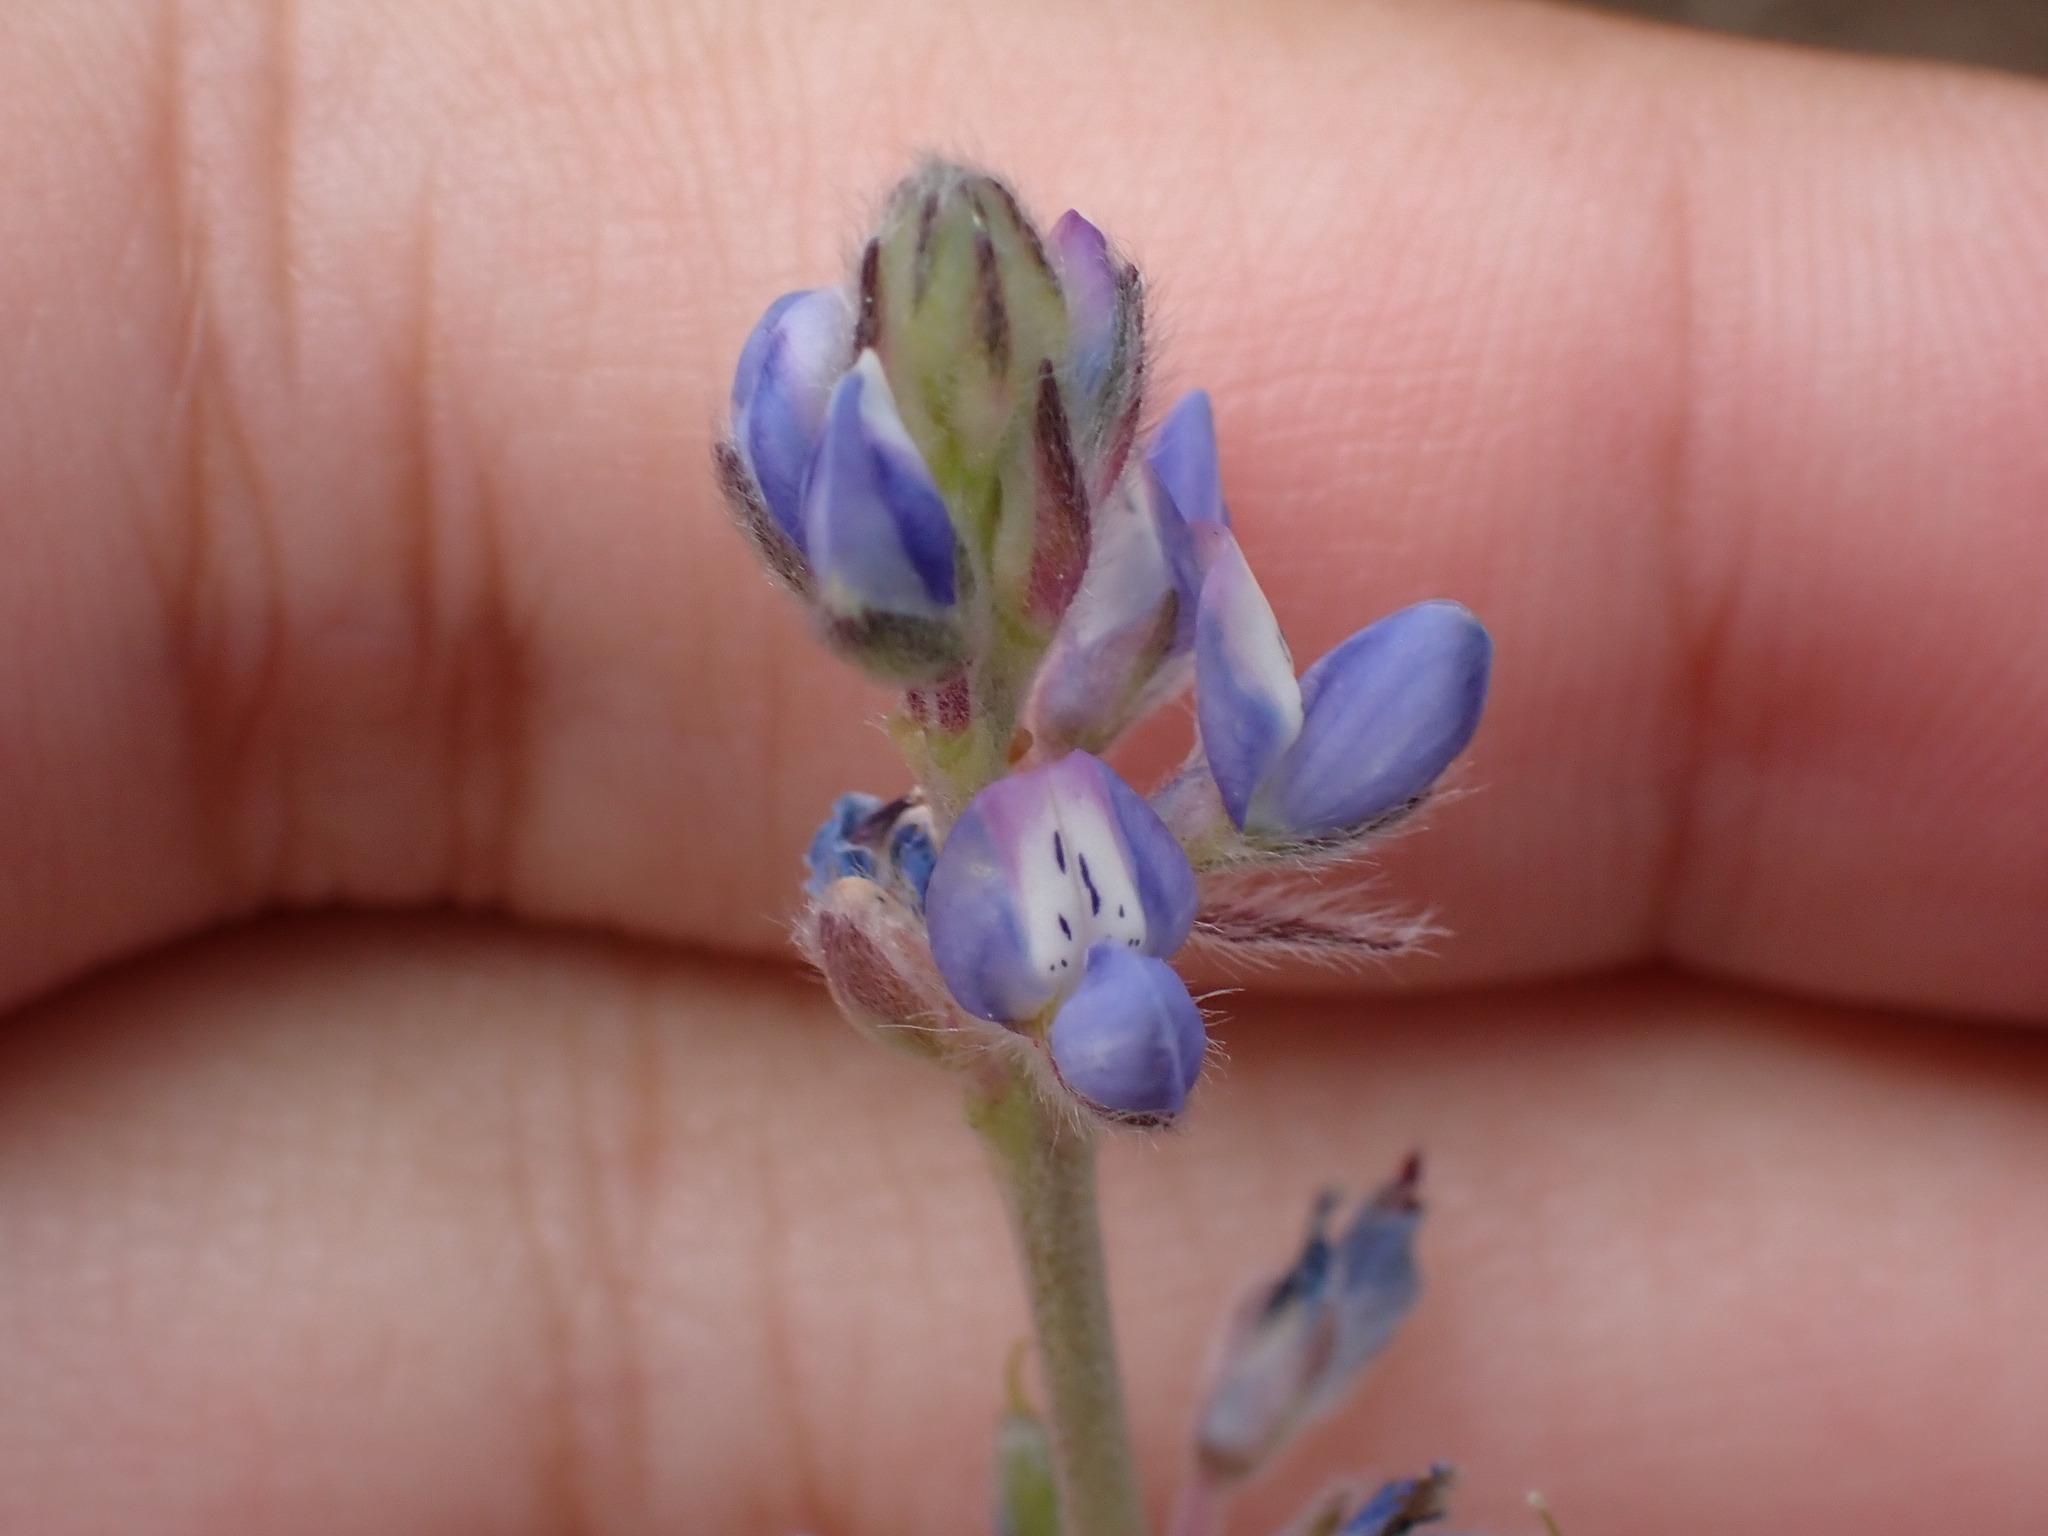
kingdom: Plantae
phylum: Tracheophyta
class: Magnoliopsida
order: Fabales
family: Fabaceae
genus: Lupinus
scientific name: Lupinus bicolor
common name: Miniature lupine
